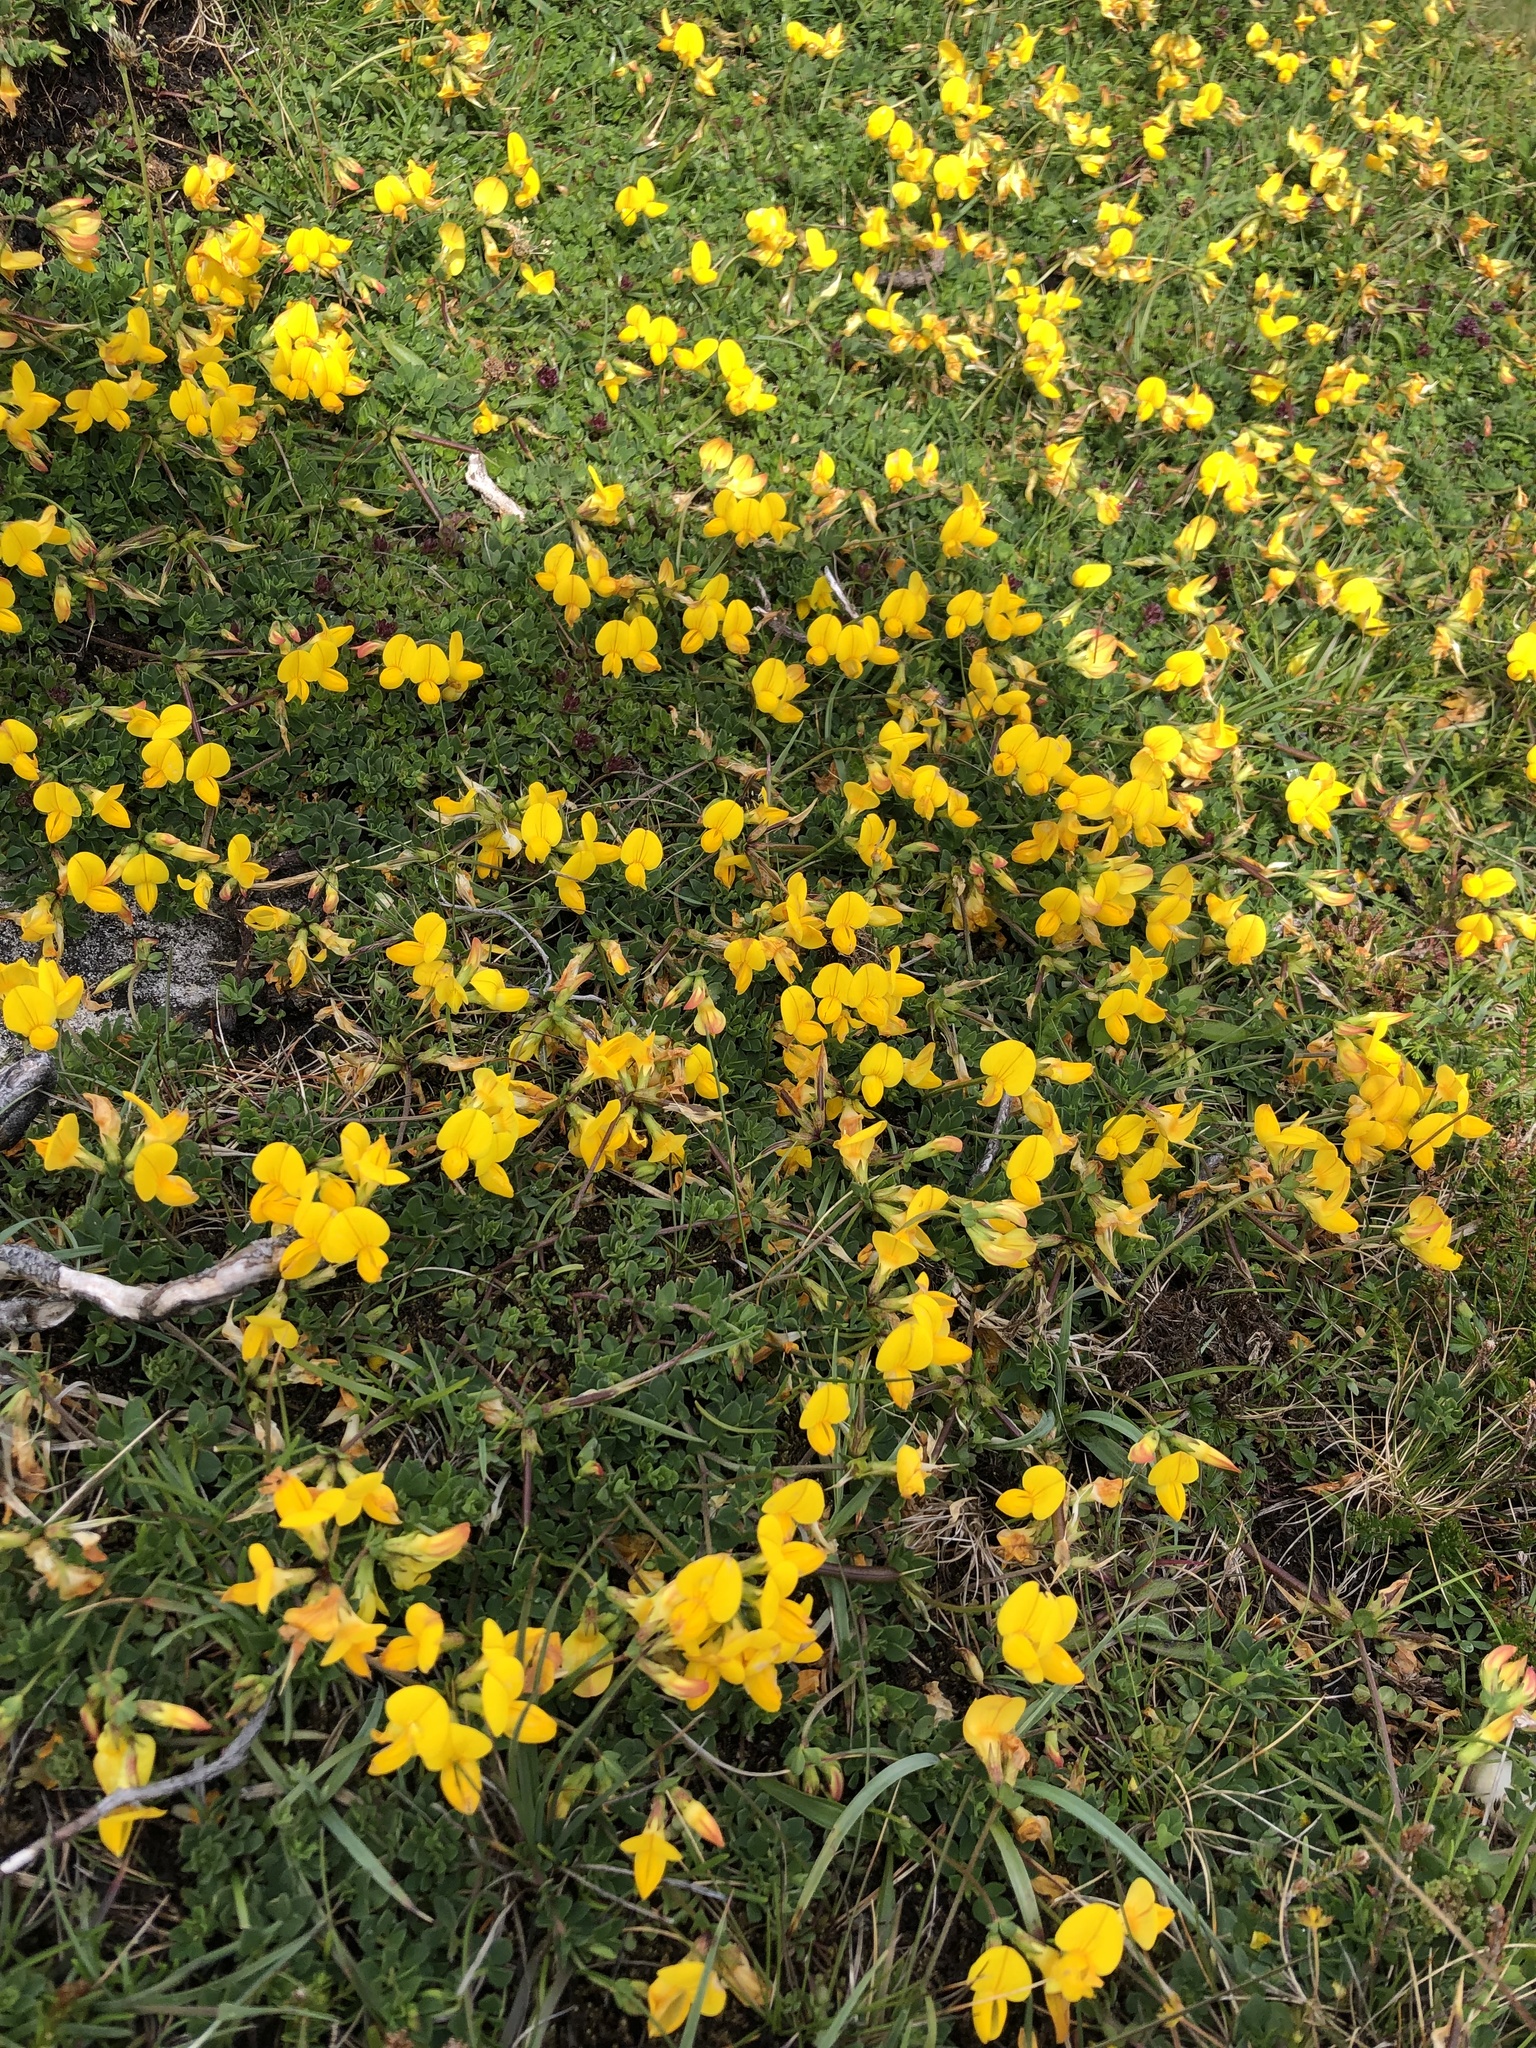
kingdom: Plantae
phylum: Tracheophyta
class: Magnoliopsida
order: Fabales
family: Fabaceae
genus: Lotus
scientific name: Lotus corniculatus
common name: Common bird's-foot-trefoil
